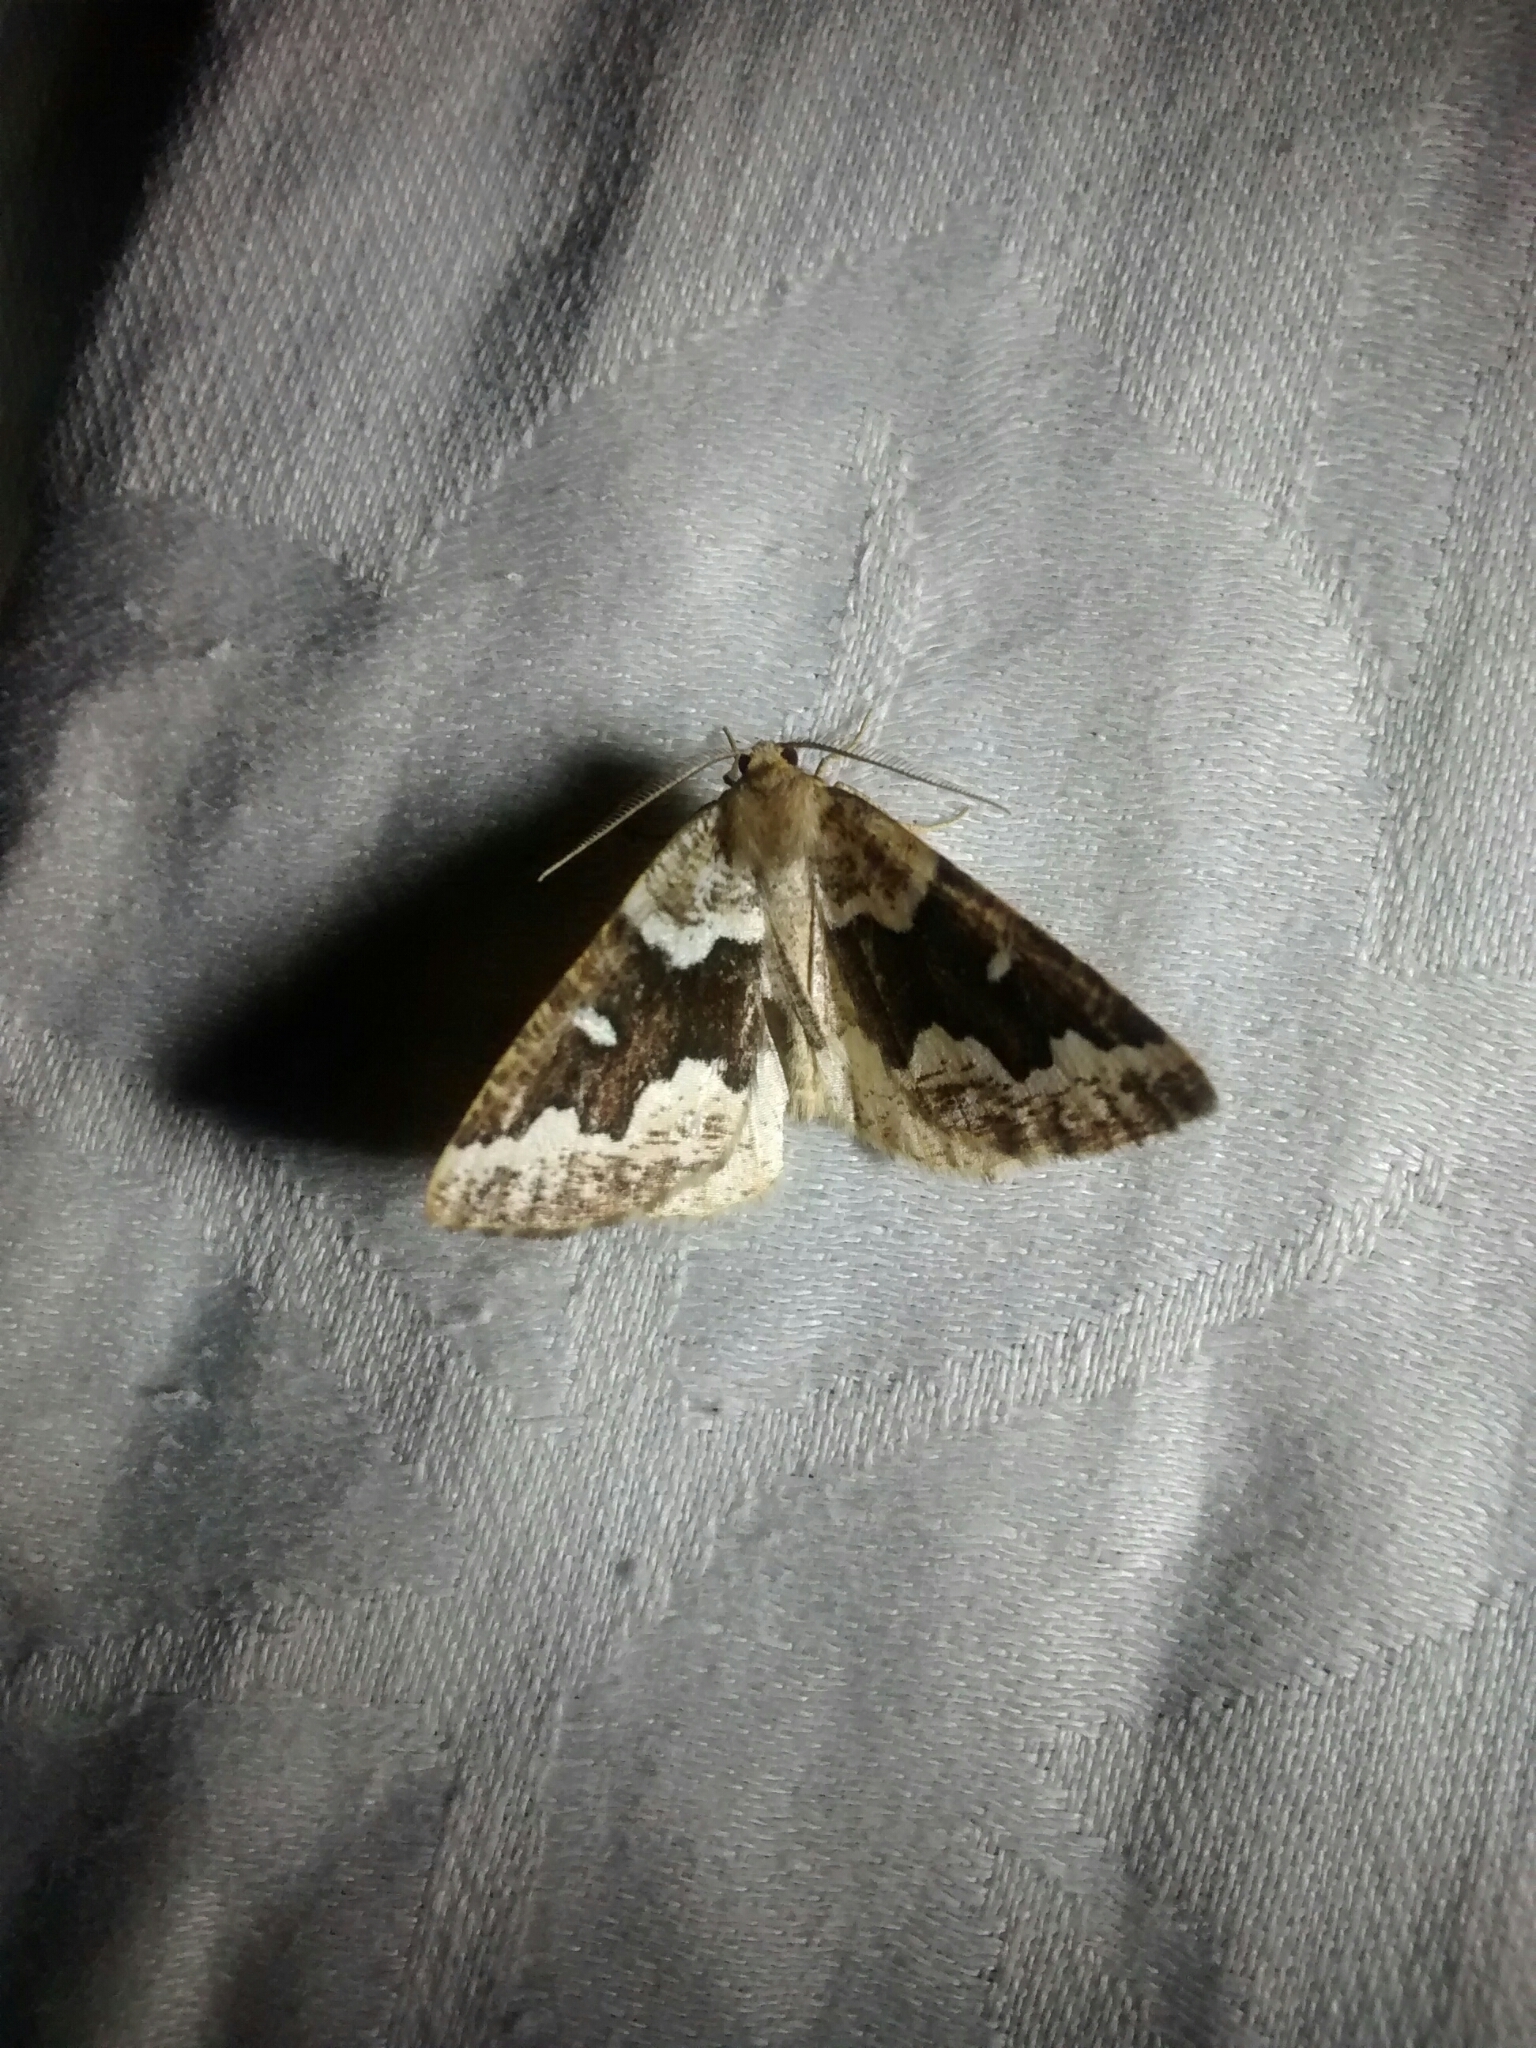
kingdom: Animalia
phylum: Arthropoda
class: Insecta
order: Lepidoptera
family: Geometridae
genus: Caripeta
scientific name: Caripeta divisata
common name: Gray spruce looper
